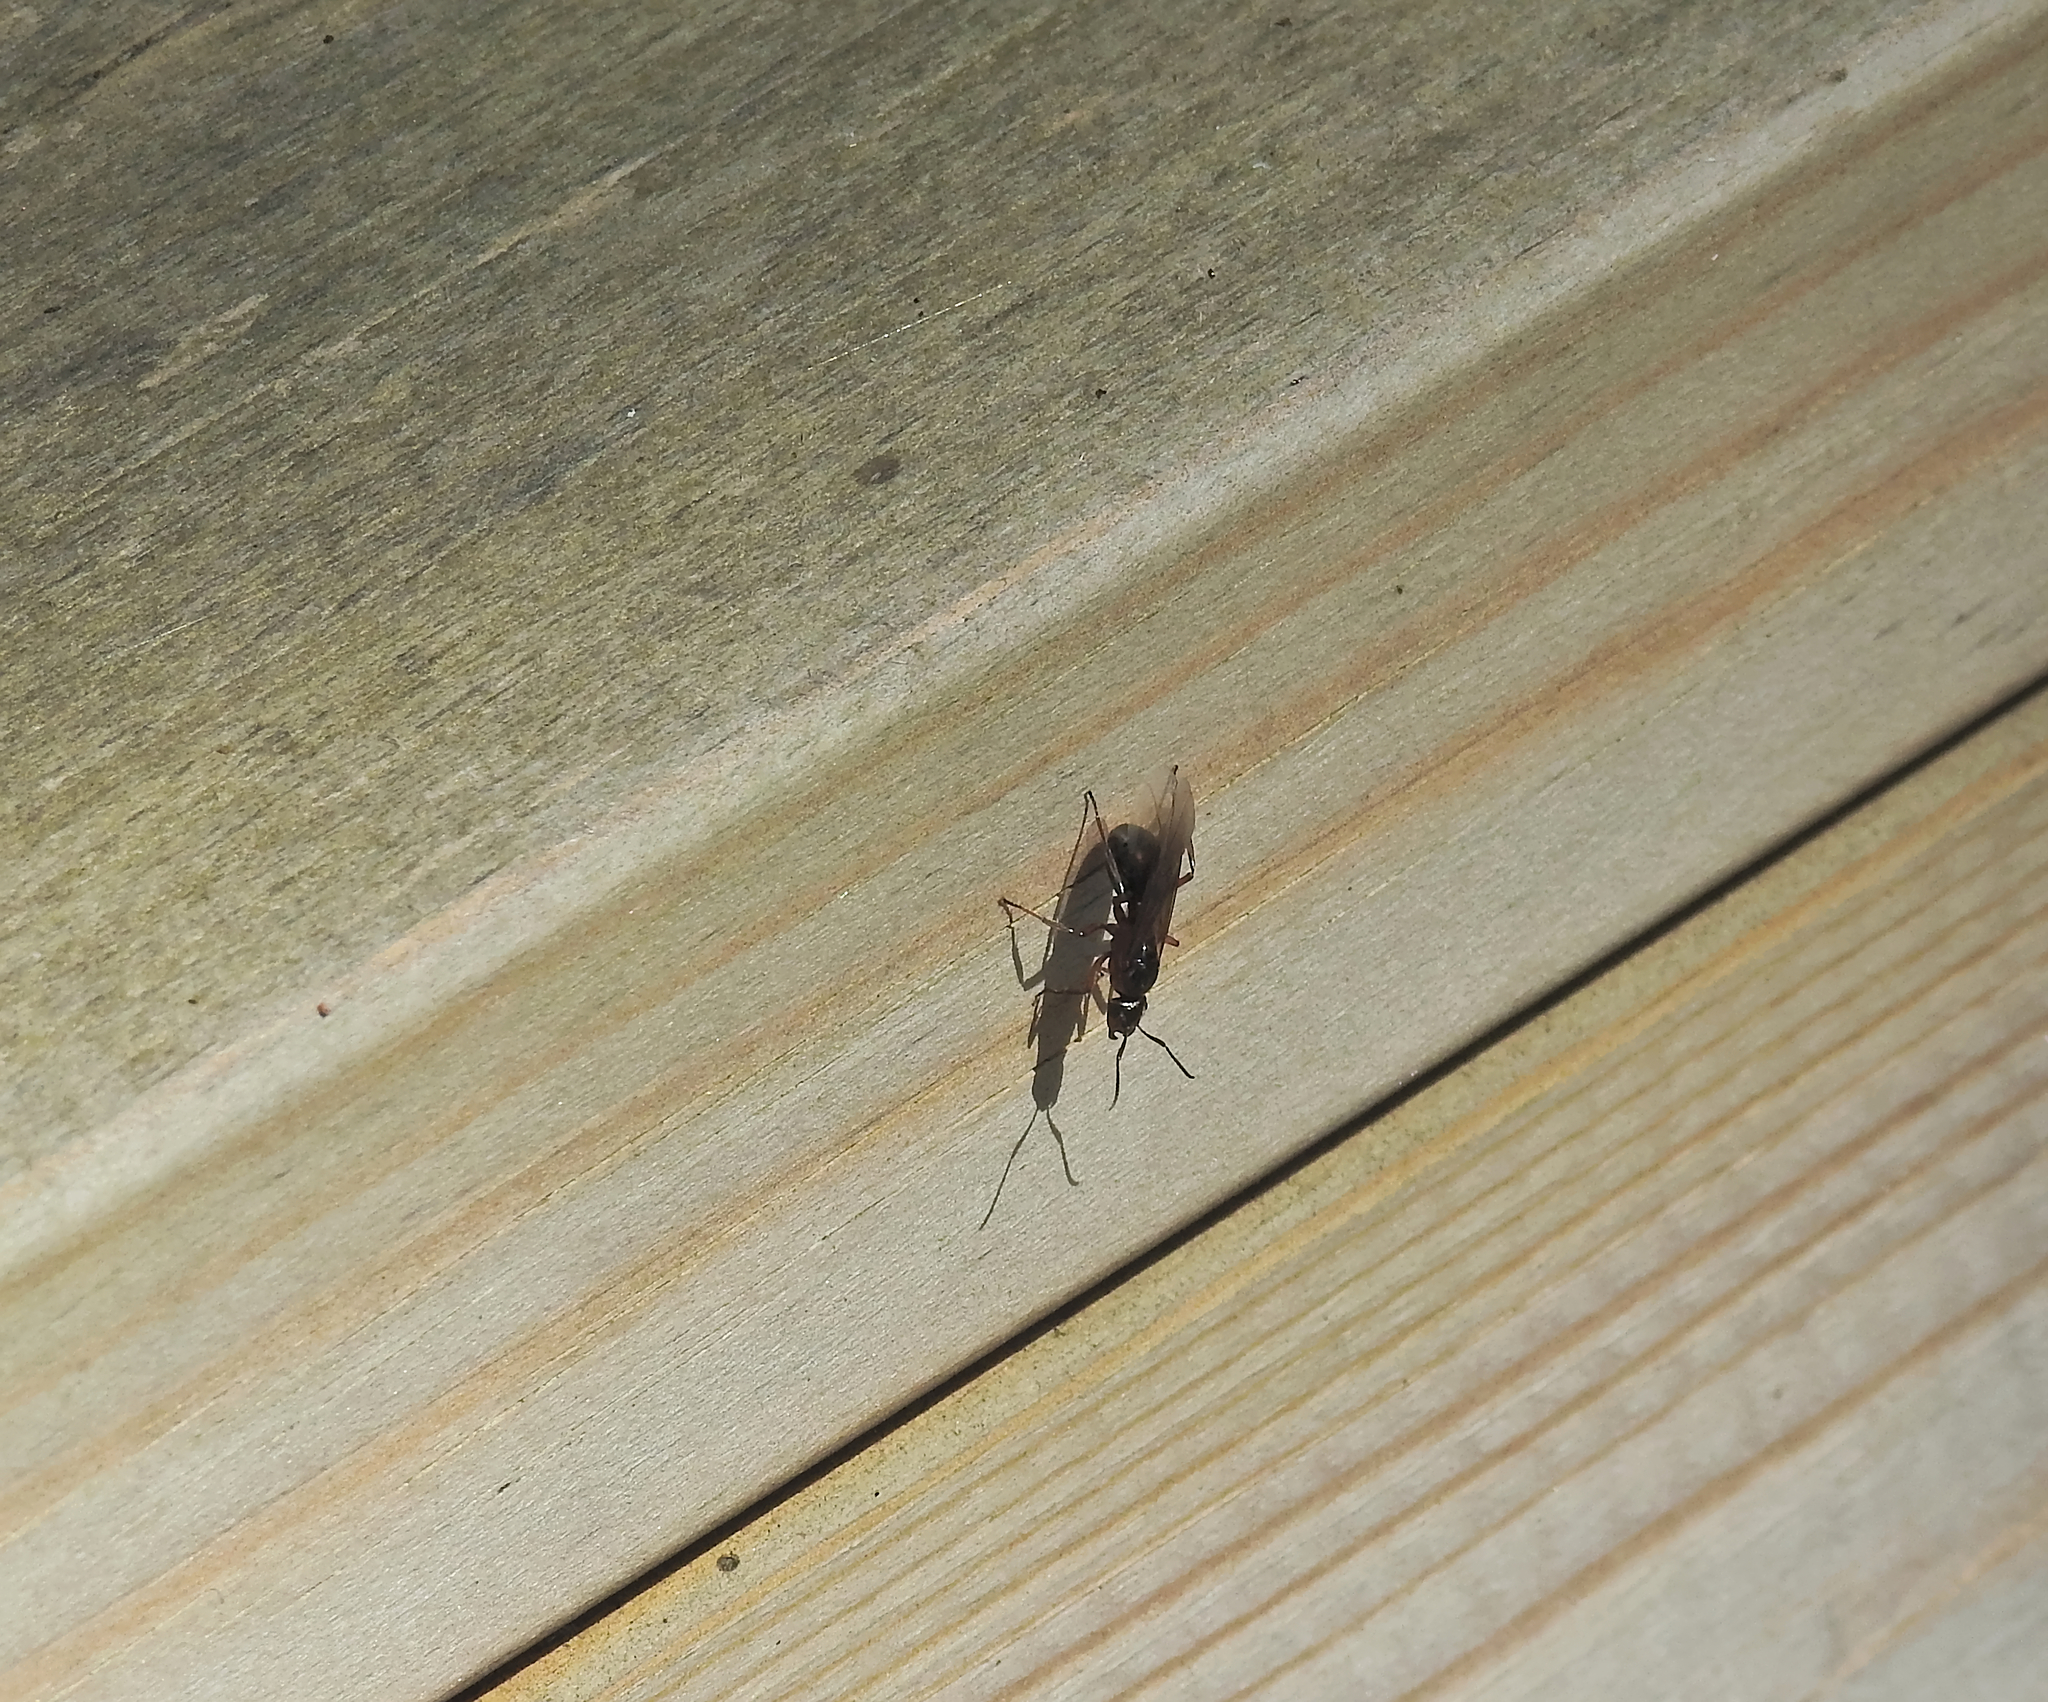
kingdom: Animalia
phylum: Arthropoda
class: Insecta
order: Hymenoptera
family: Formicidae
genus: Formica
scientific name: Formica
